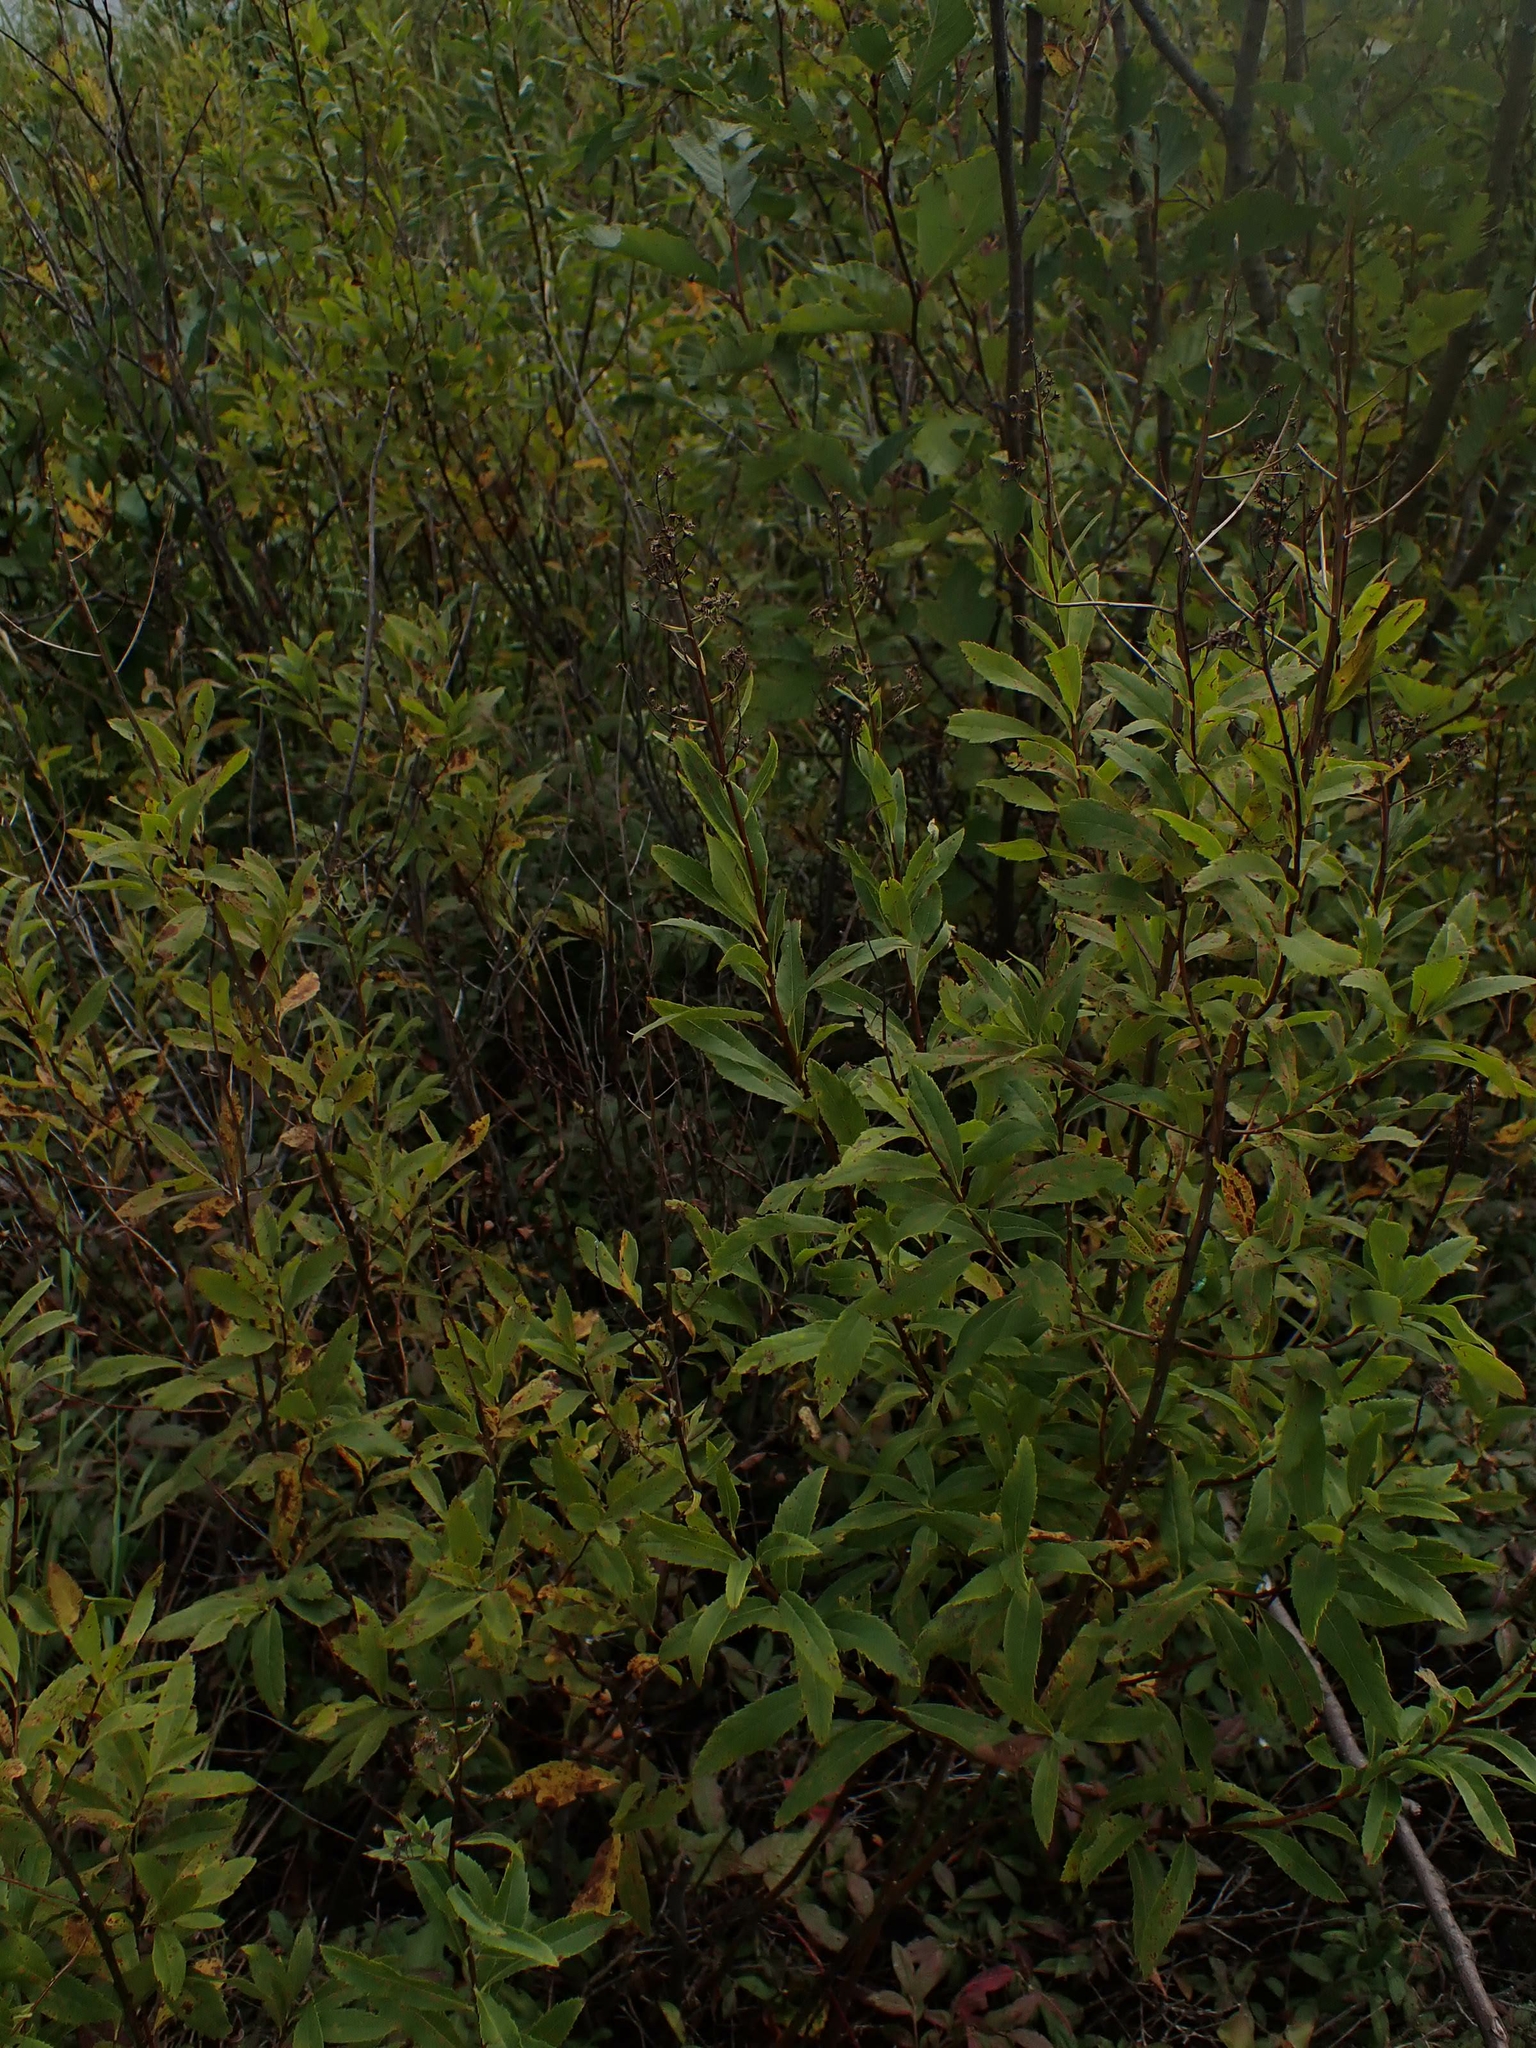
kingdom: Plantae
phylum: Tracheophyta
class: Magnoliopsida
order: Rosales
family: Rosaceae
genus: Spiraea
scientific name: Spiraea alba
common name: Pale bridewort
